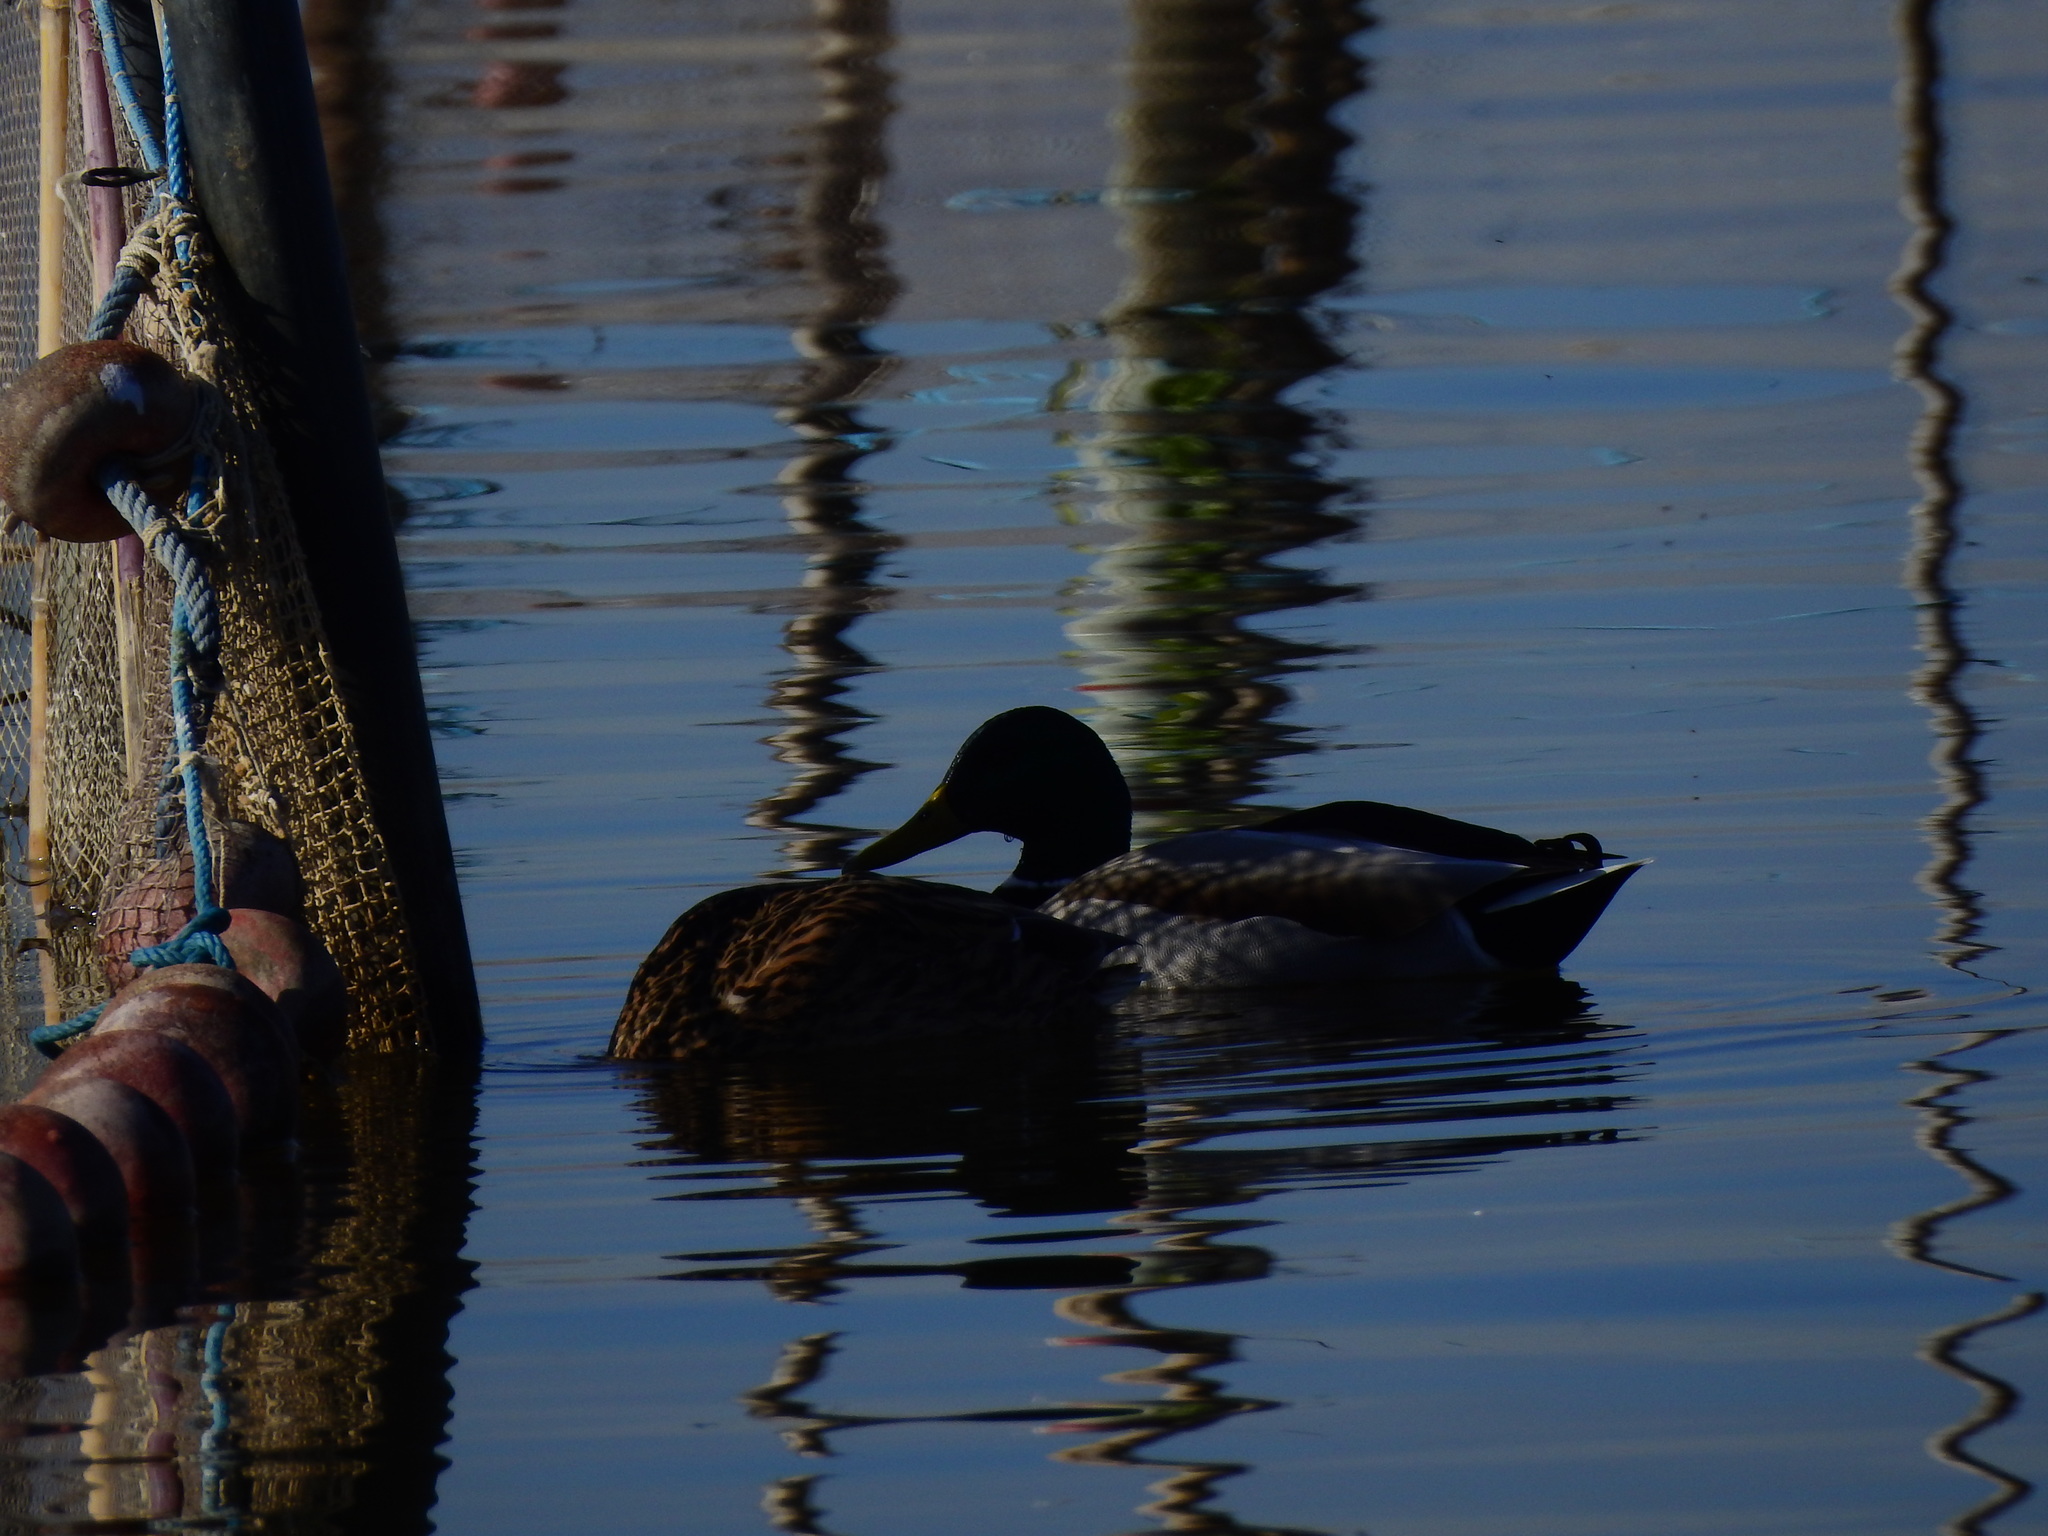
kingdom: Animalia
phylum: Chordata
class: Aves
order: Anseriformes
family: Anatidae
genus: Anas
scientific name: Anas platyrhynchos
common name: Mallard
